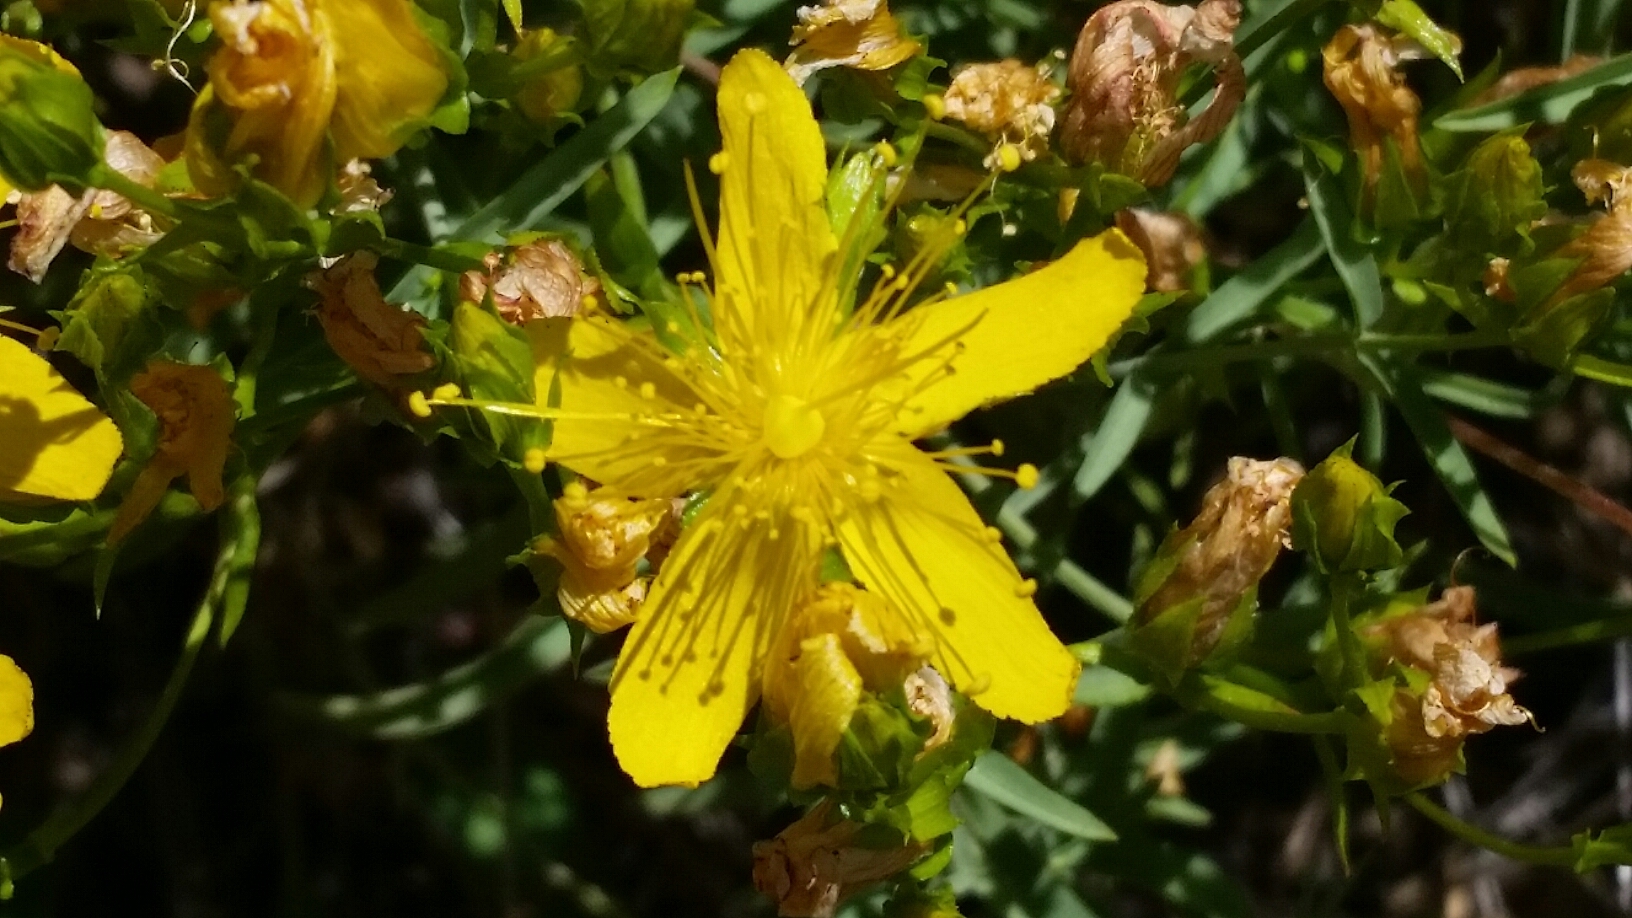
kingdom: Plantae
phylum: Tracheophyta
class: Magnoliopsida
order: Malpighiales
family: Hypericaceae
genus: Hypericum
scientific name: Hypericum concinnum
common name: Gold-wire
